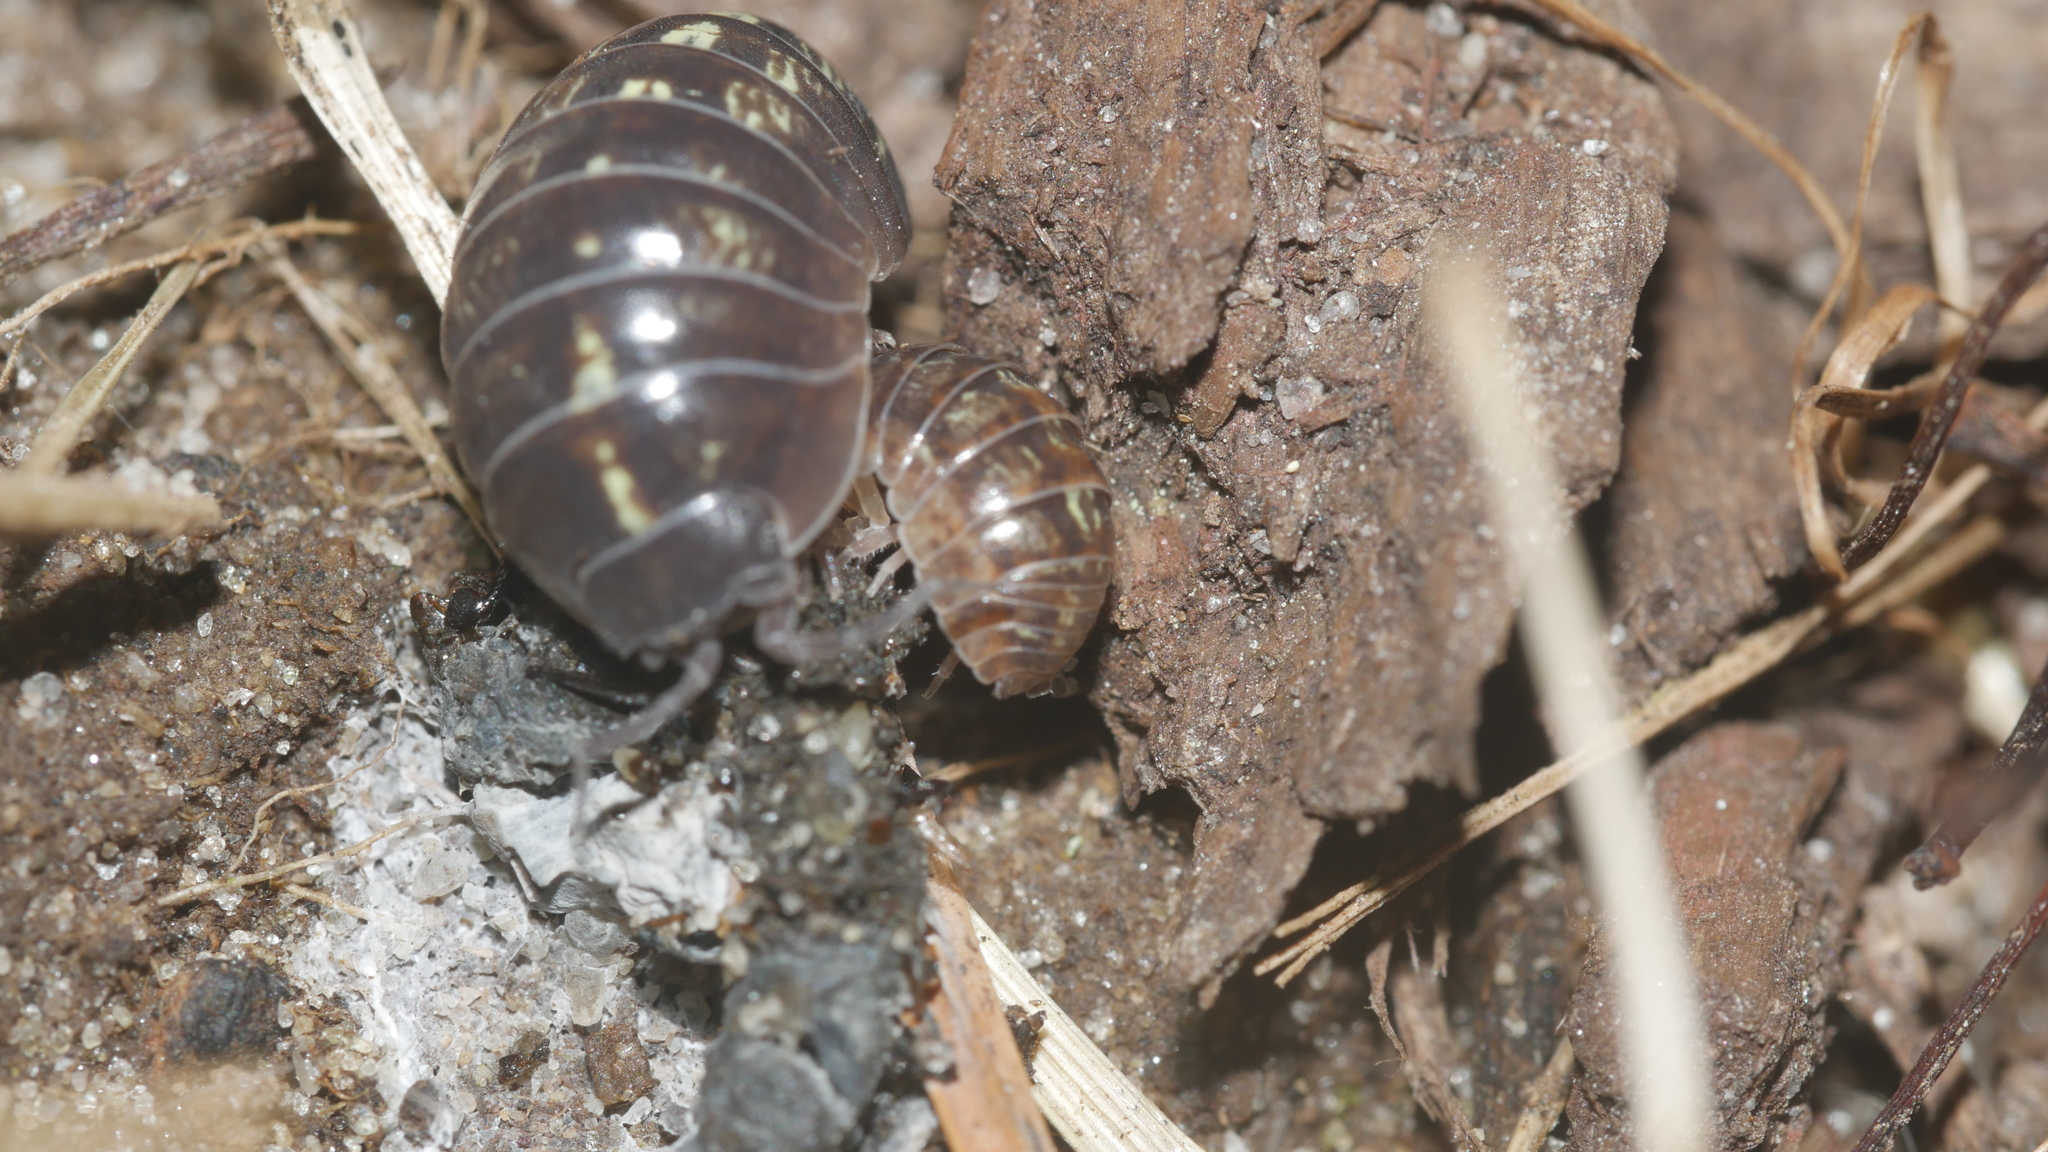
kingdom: Animalia
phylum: Arthropoda
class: Malacostraca
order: Isopoda
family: Armadillidiidae
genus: Armadillidium
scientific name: Armadillidium vulgare
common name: Common pill woodlouse
